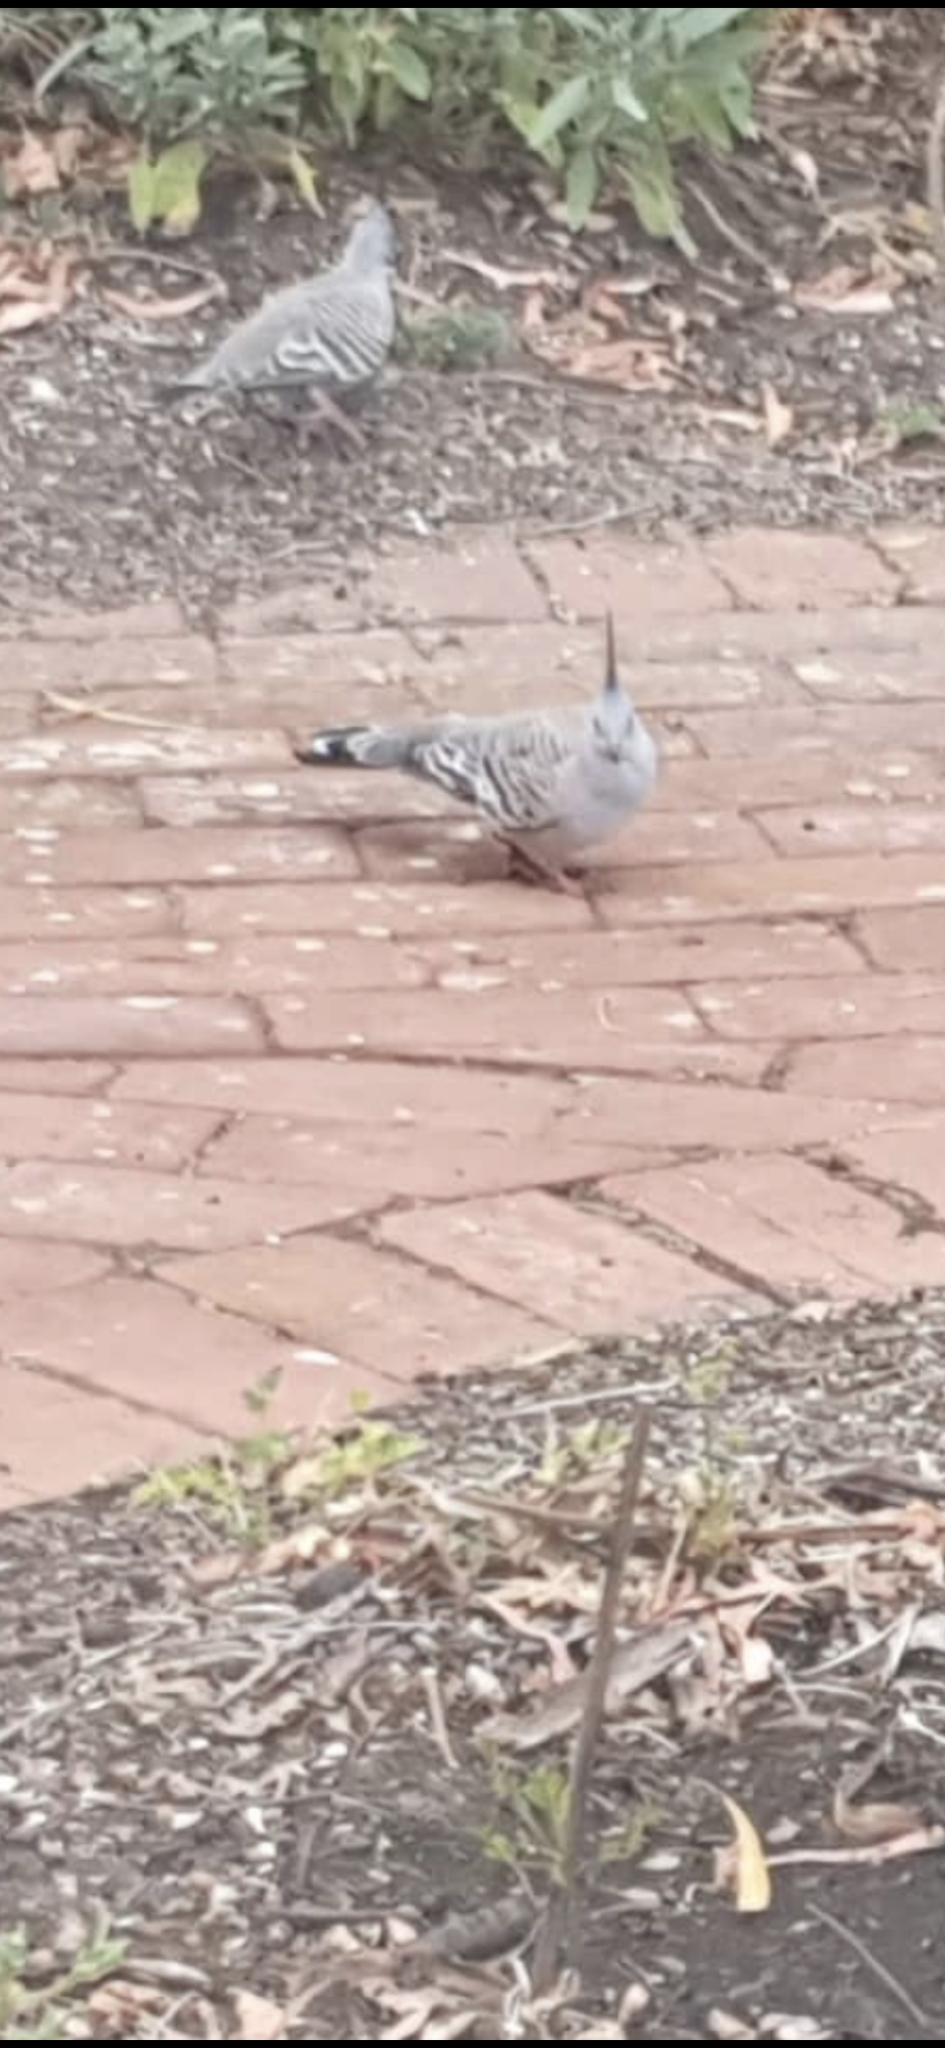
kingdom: Animalia
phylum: Chordata
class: Aves
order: Columbiformes
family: Columbidae
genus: Ocyphaps
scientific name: Ocyphaps lophotes
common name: Crested pigeon
